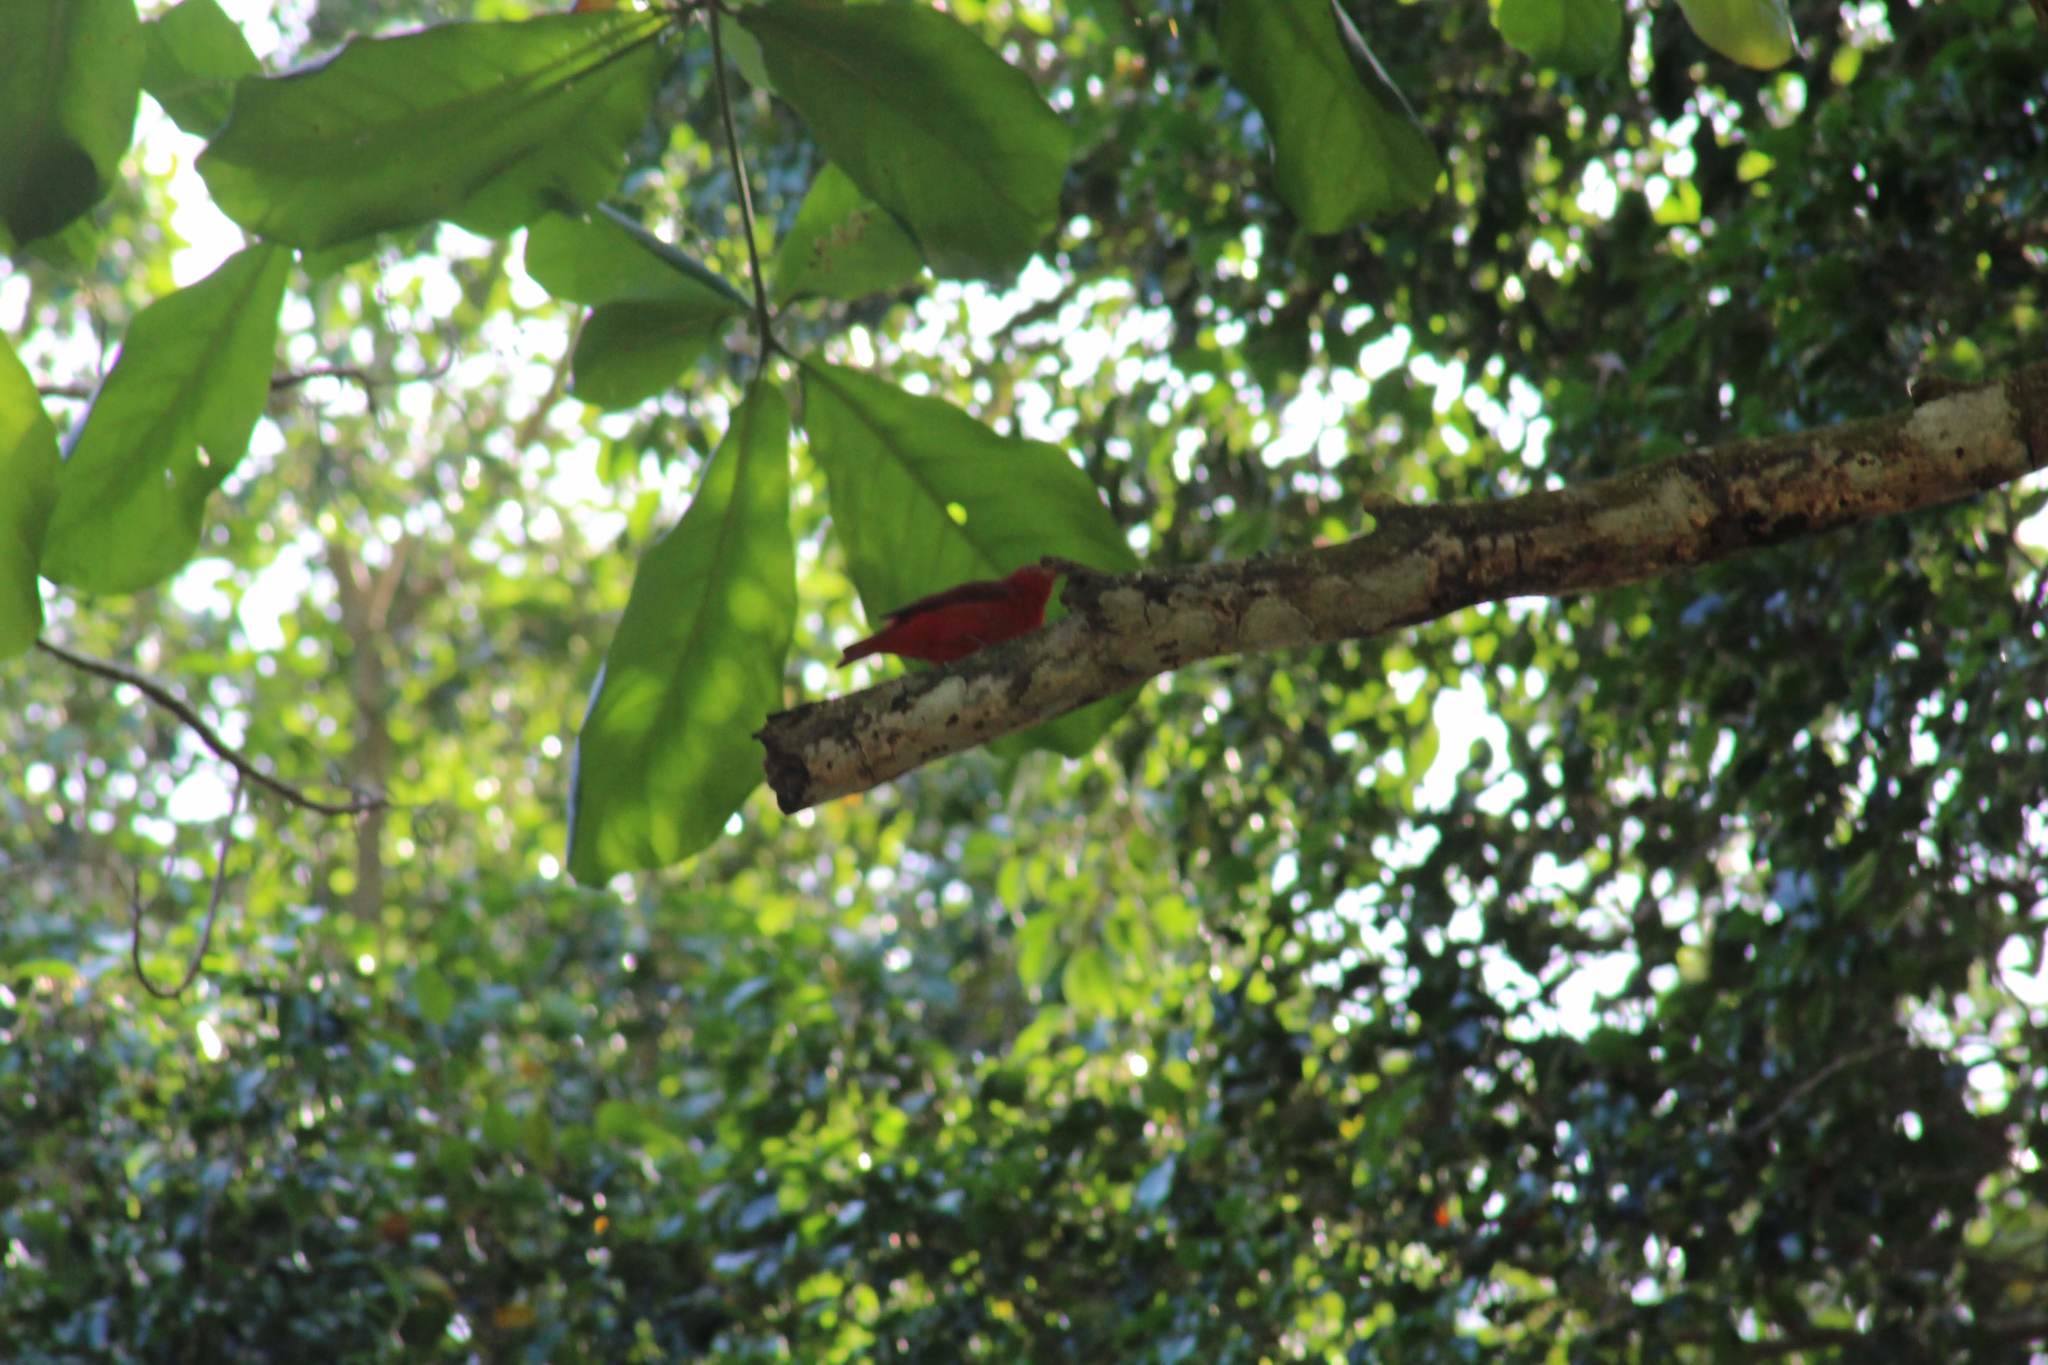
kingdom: Animalia
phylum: Chordata
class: Aves
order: Passeriformes
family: Cardinalidae
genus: Piranga
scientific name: Piranga rubra
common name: Summer tanager
